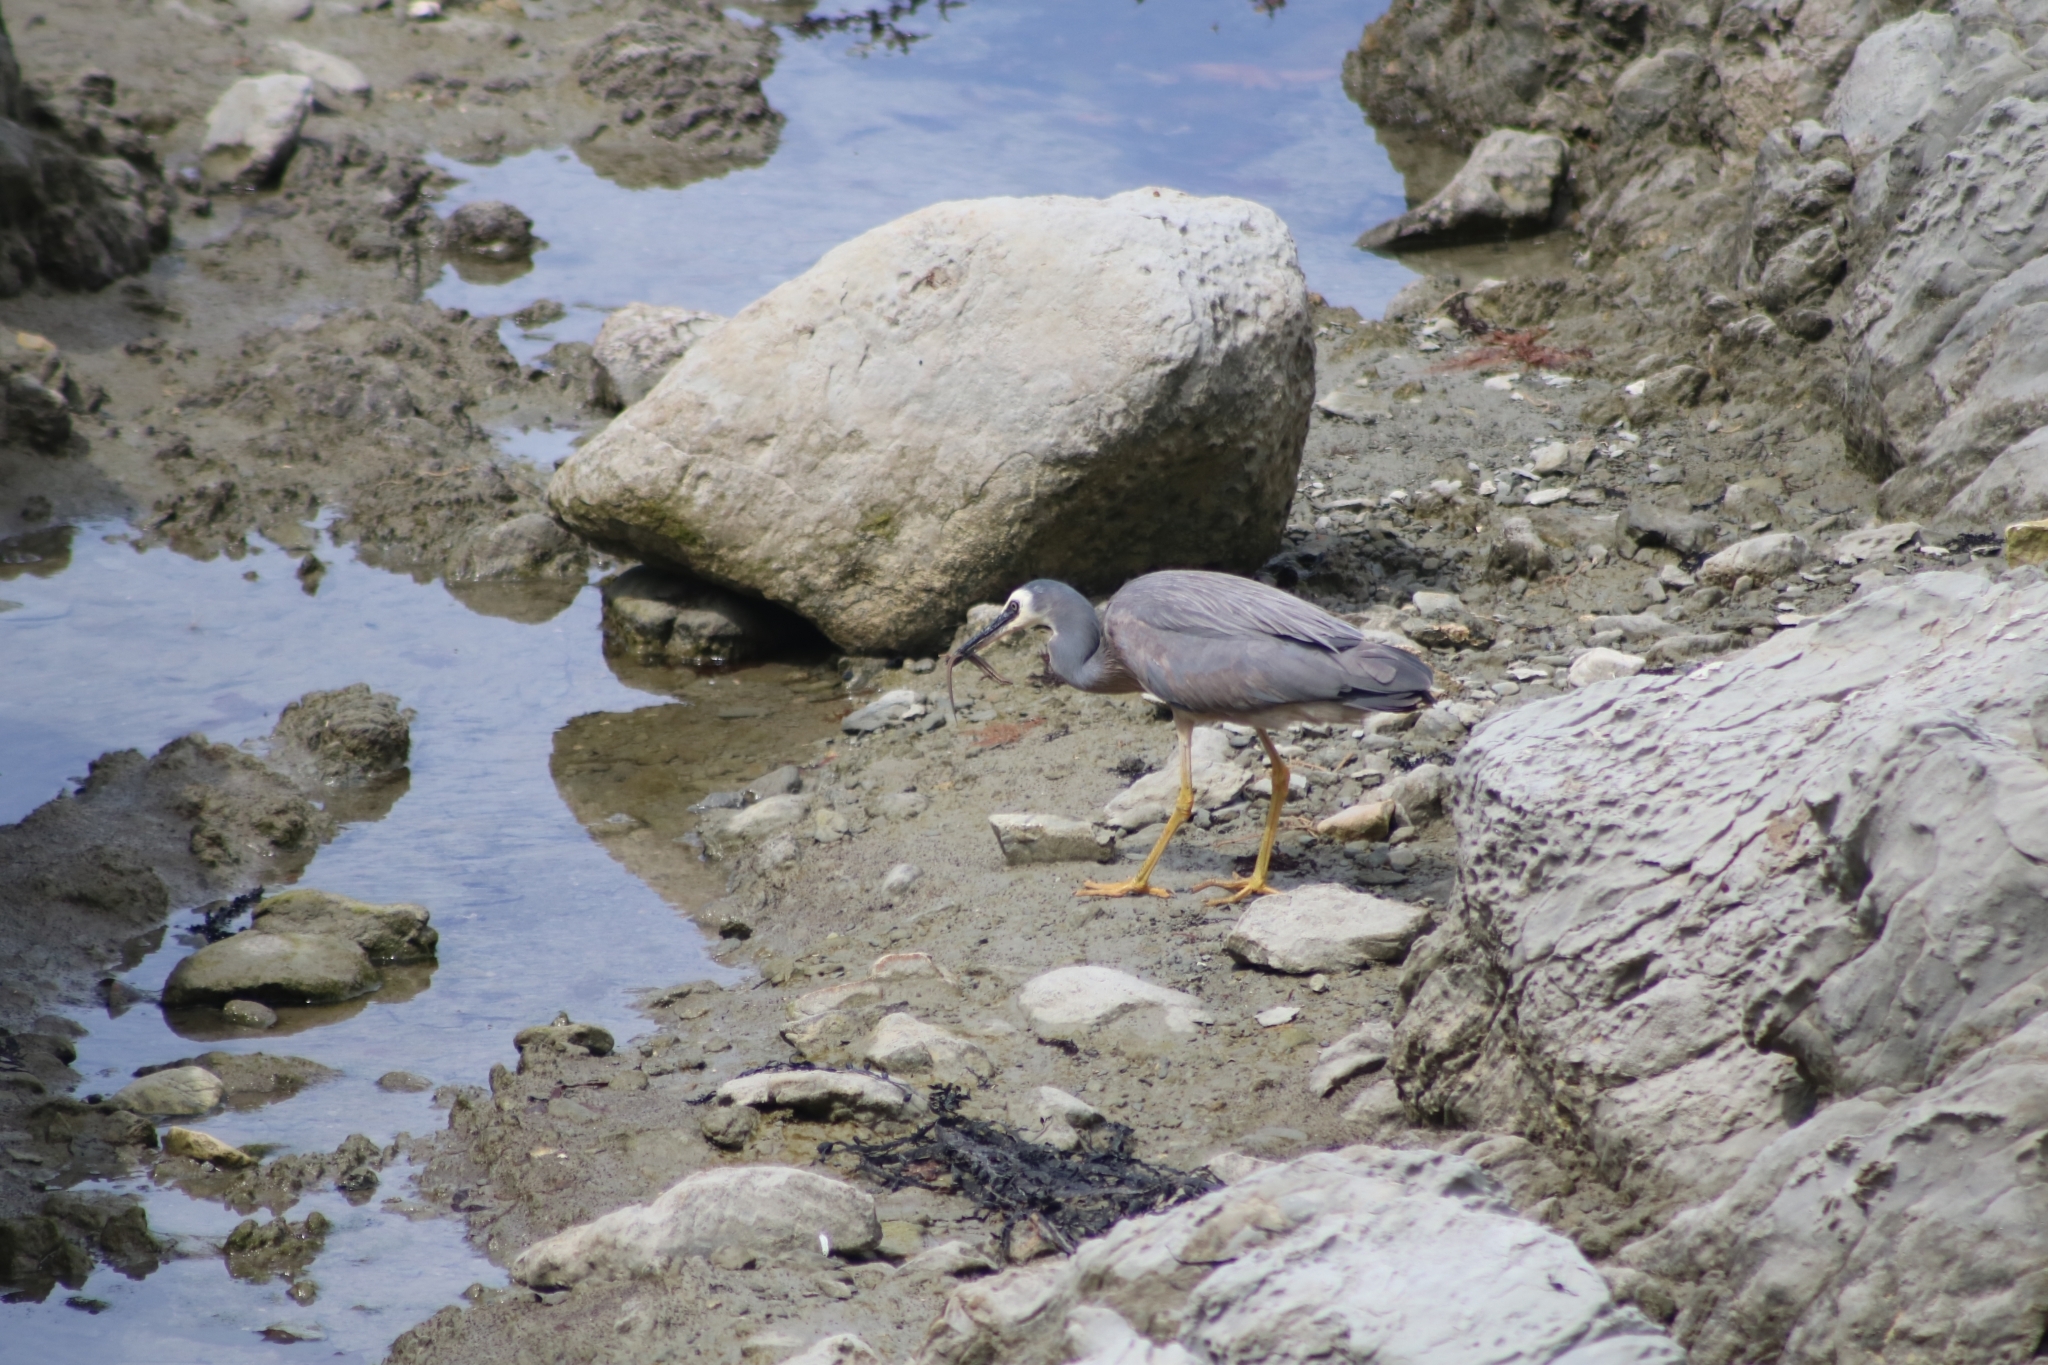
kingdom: Animalia
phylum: Chordata
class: Aves
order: Pelecaniformes
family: Ardeidae
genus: Egretta
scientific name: Egretta novaehollandiae
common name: White-faced heron
